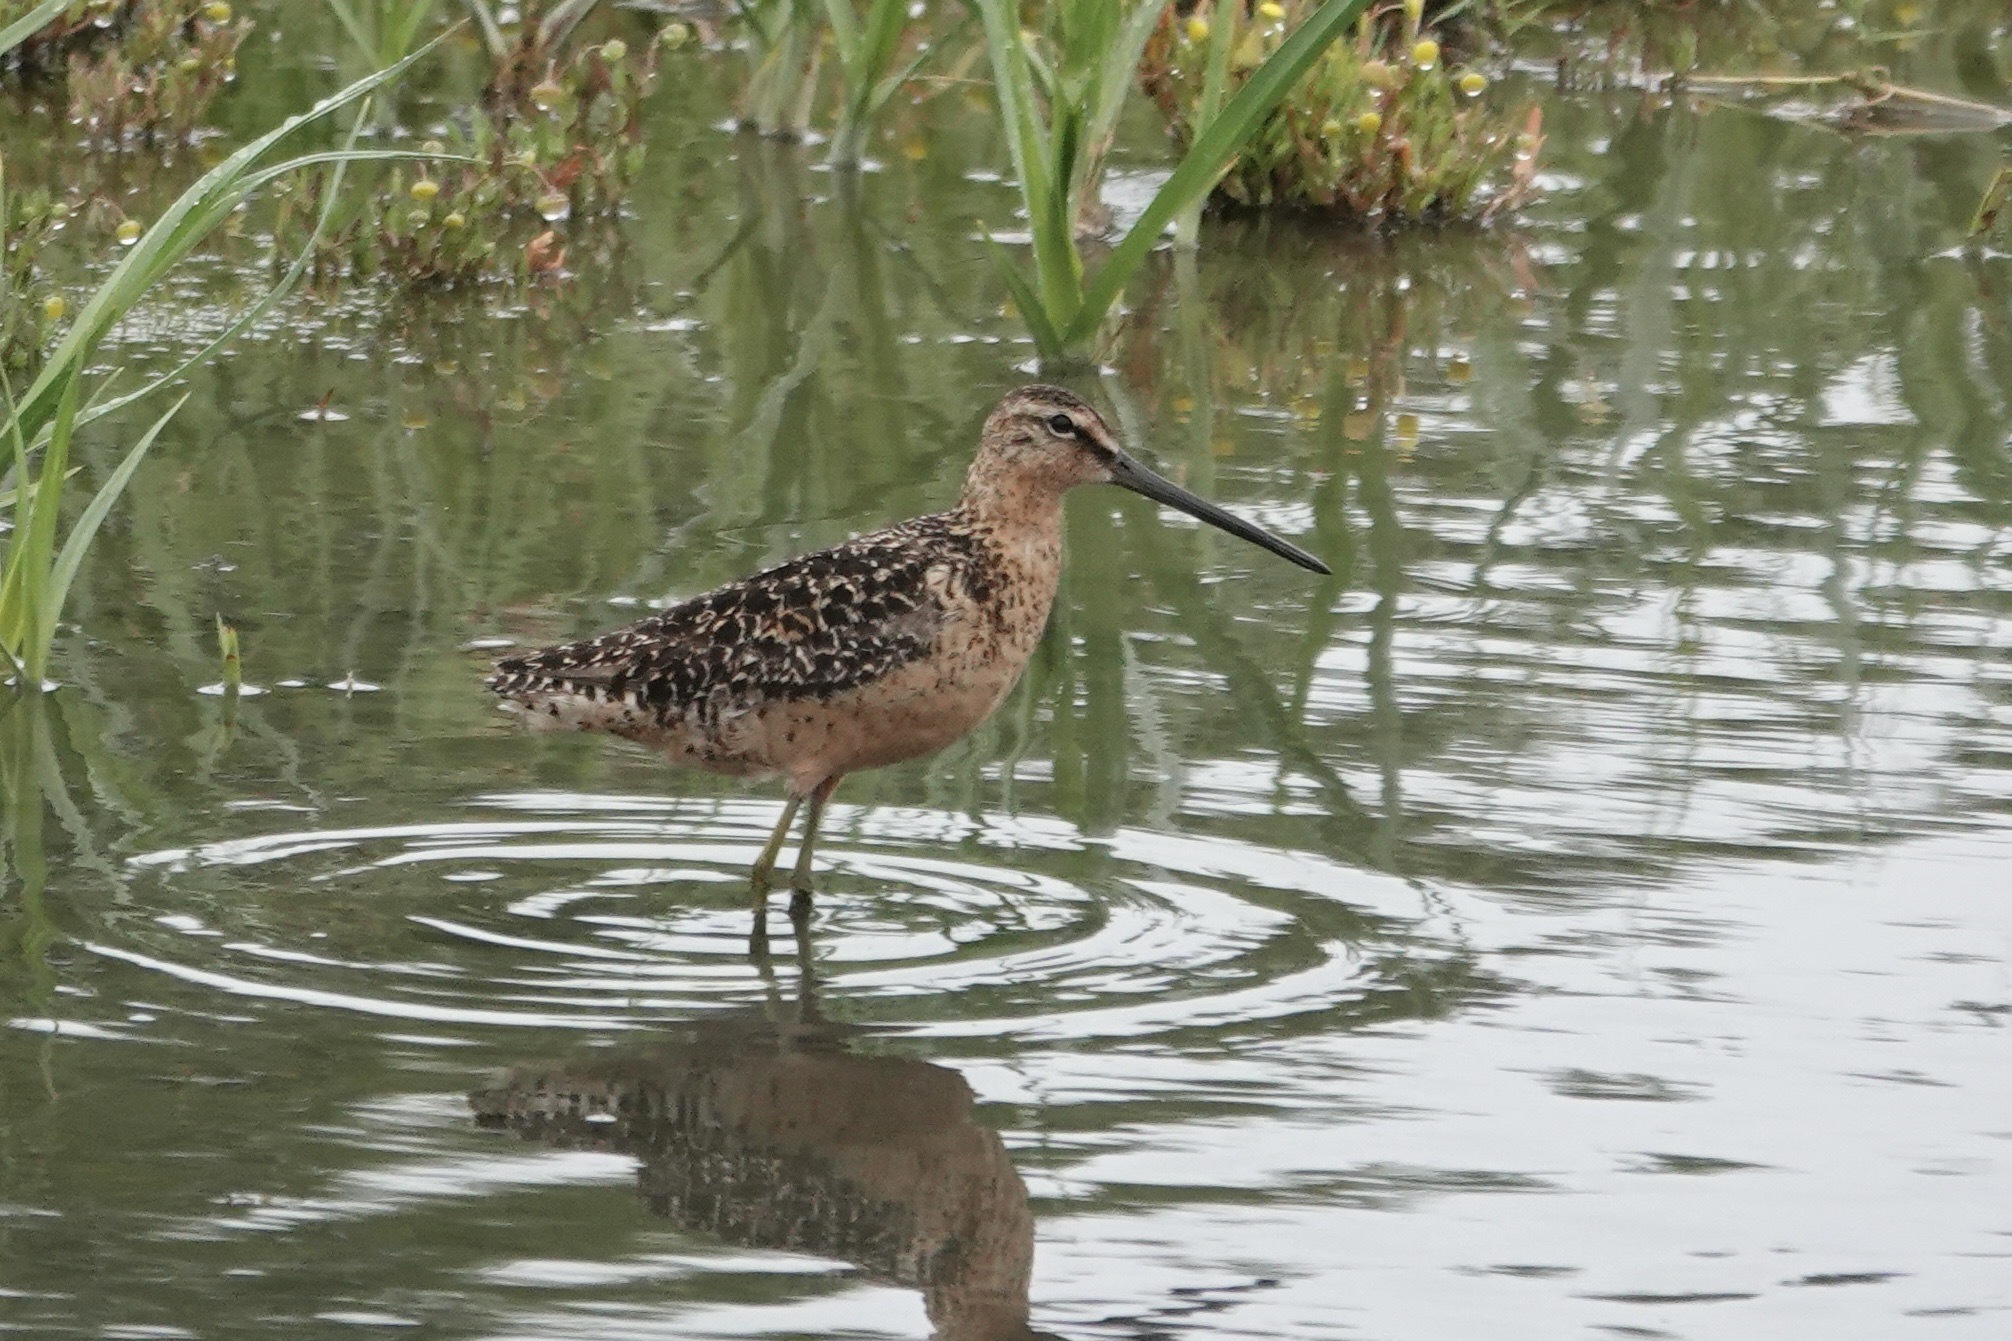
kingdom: Animalia
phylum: Chordata
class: Aves
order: Charadriiformes
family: Scolopacidae
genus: Limnodromus
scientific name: Limnodromus scolopaceus
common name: Long-billed dowitcher
